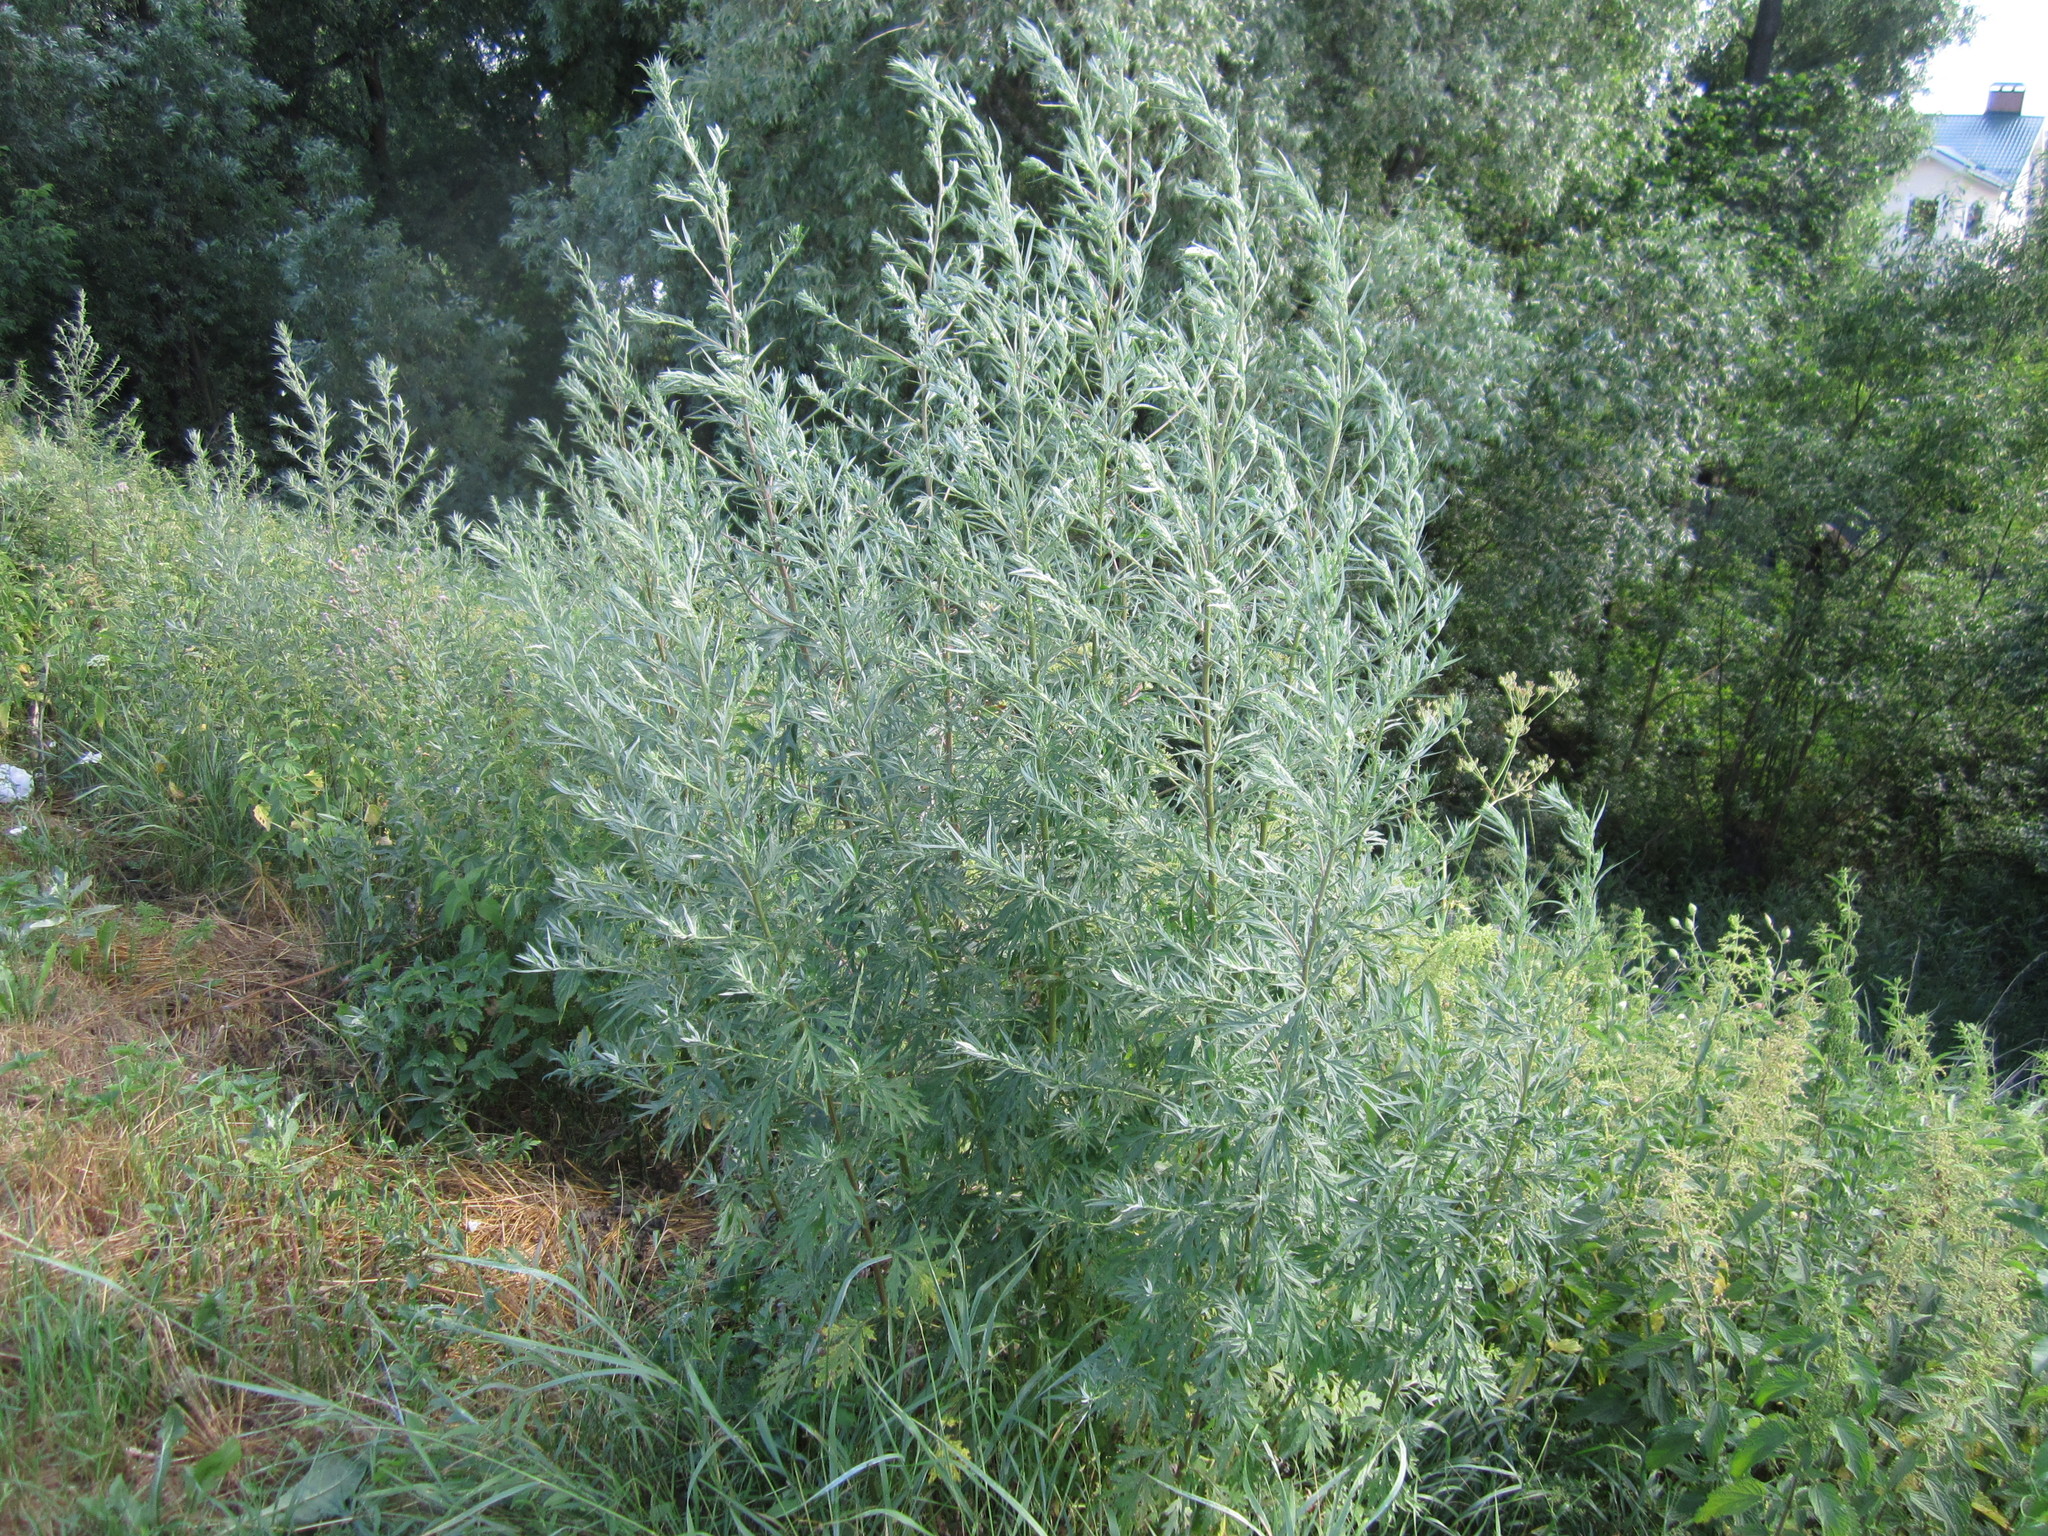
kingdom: Plantae
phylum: Tracheophyta
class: Magnoliopsida
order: Asterales
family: Asteraceae
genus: Artemisia
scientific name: Artemisia absinthium
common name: Wormwood
